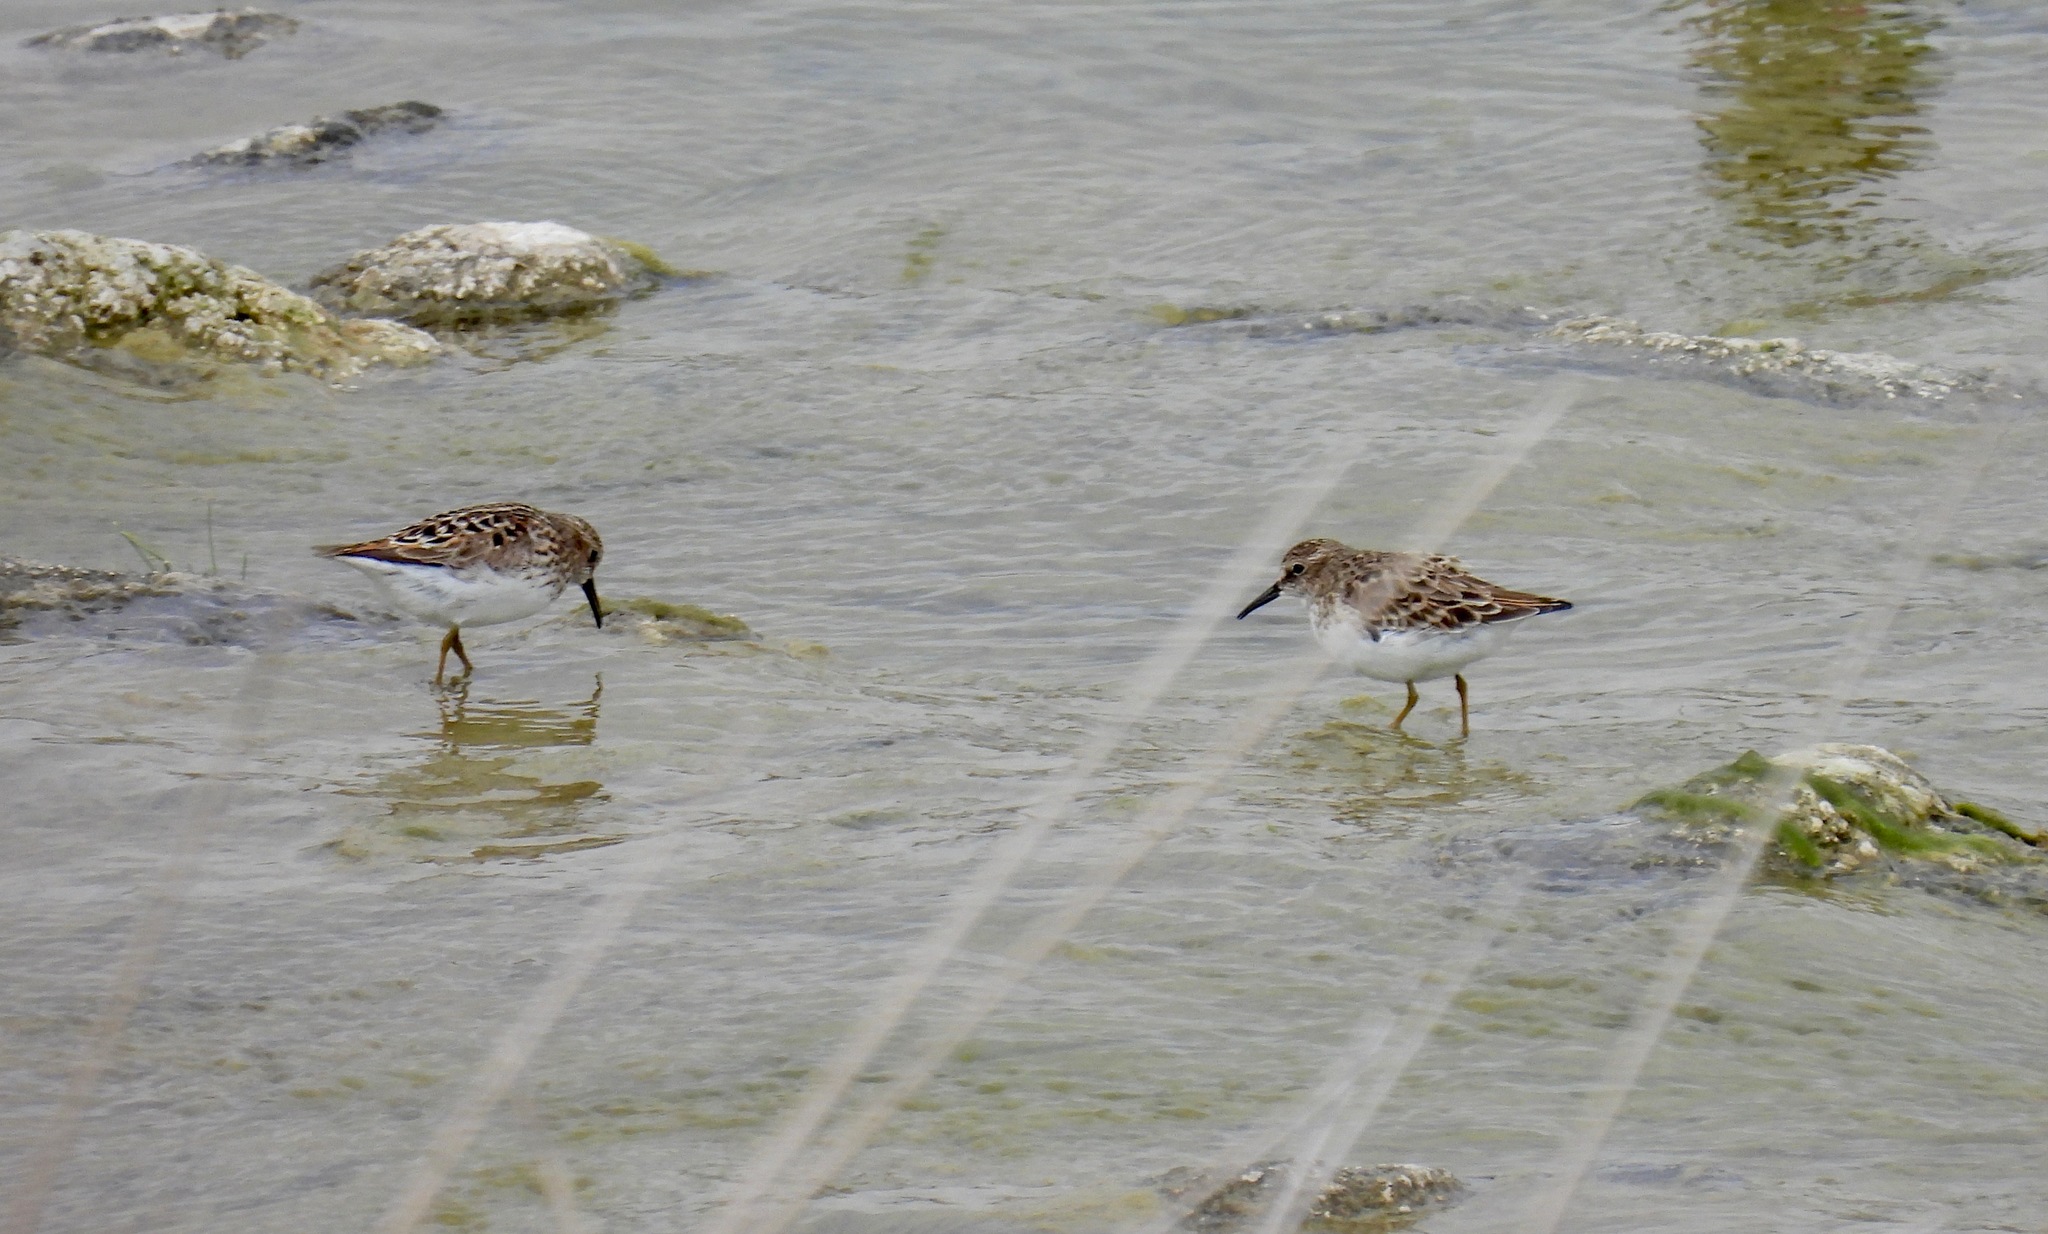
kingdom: Animalia
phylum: Chordata
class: Aves
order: Charadriiformes
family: Scolopacidae
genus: Calidris
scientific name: Calidris minutilla
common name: Least sandpiper
